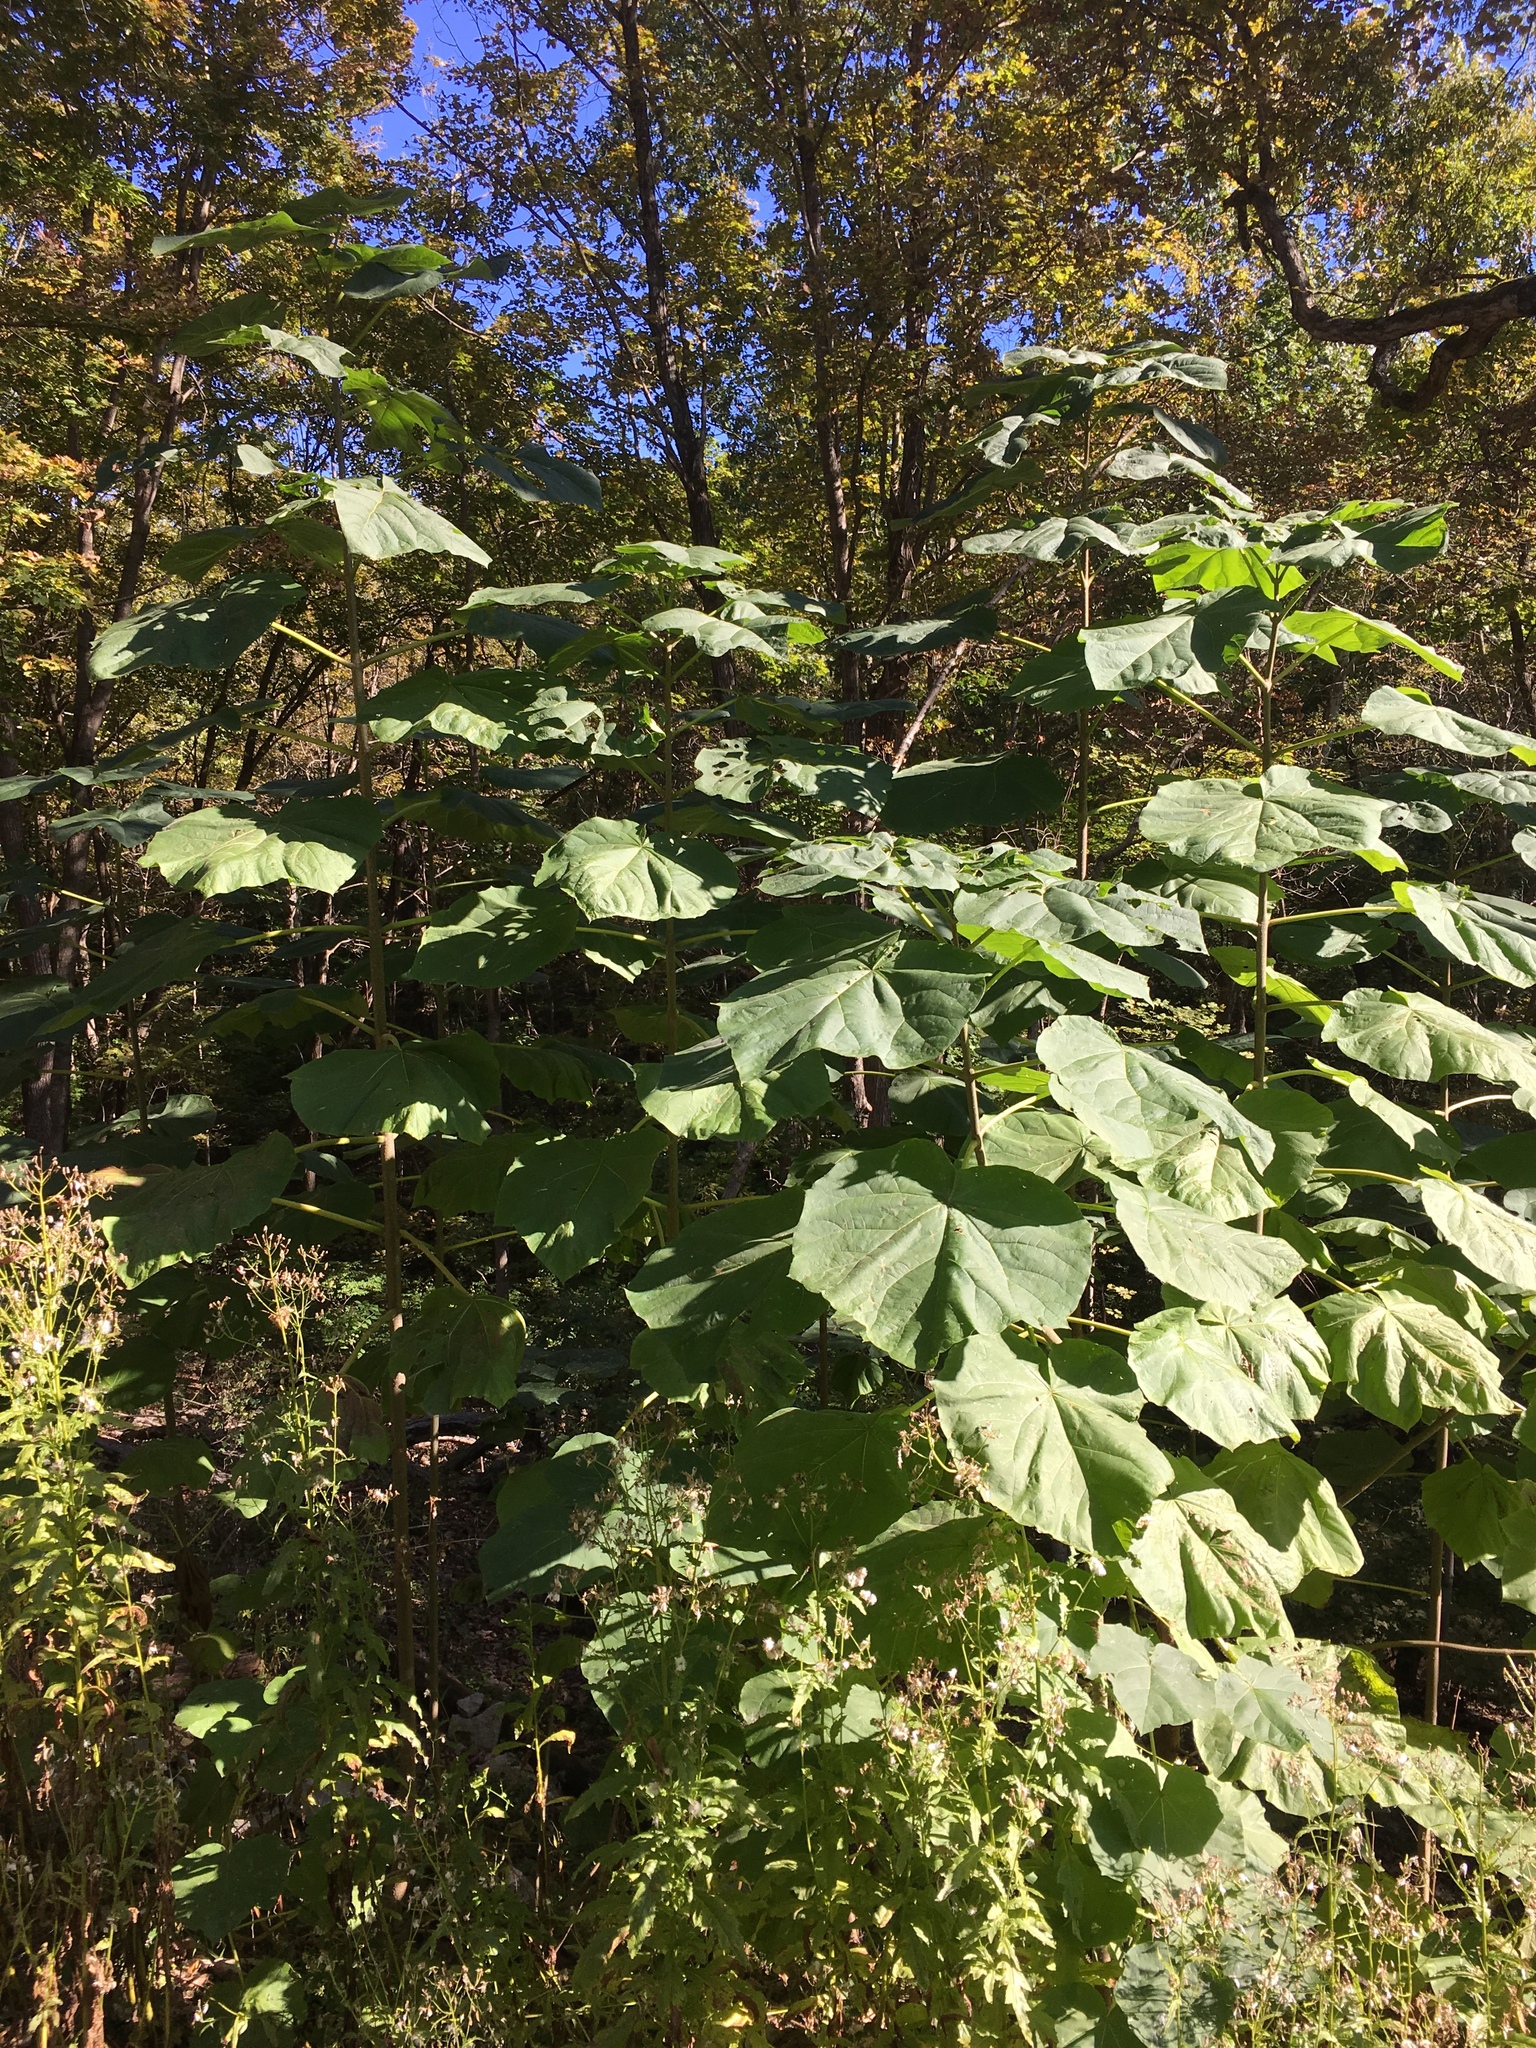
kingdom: Plantae
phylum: Tracheophyta
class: Magnoliopsida
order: Lamiales
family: Paulowniaceae
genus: Paulownia
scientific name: Paulownia tomentosa
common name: Foxglove-tree
